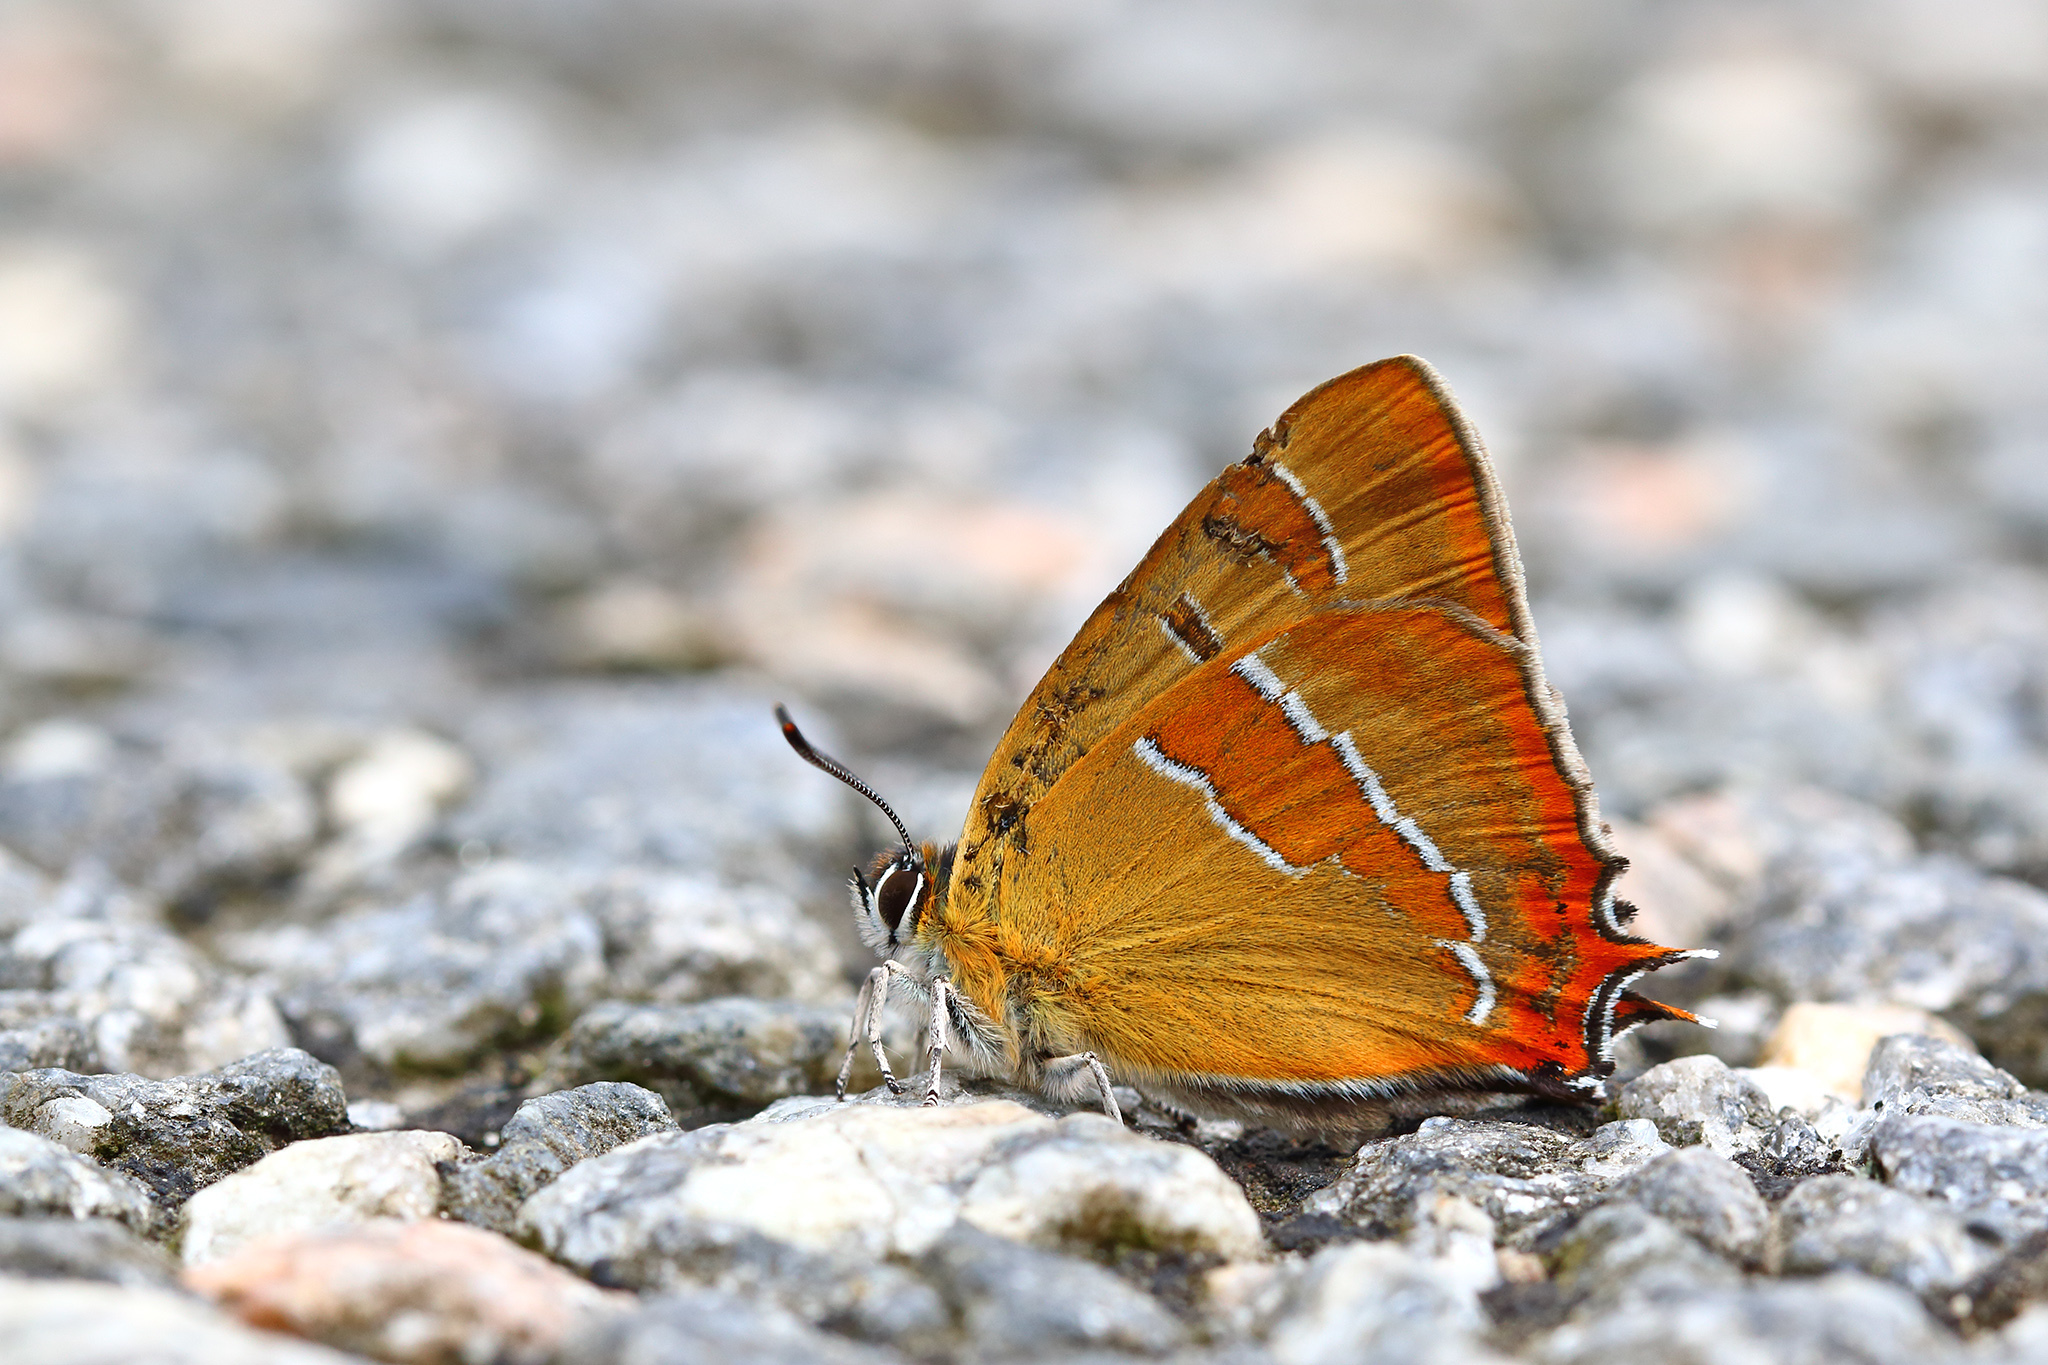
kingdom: Animalia
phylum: Arthropoda
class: Insecta
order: Lepidoptera
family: Lycaenidae
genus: Thecla
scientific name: Thecla betulae
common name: Brown hairstreak
